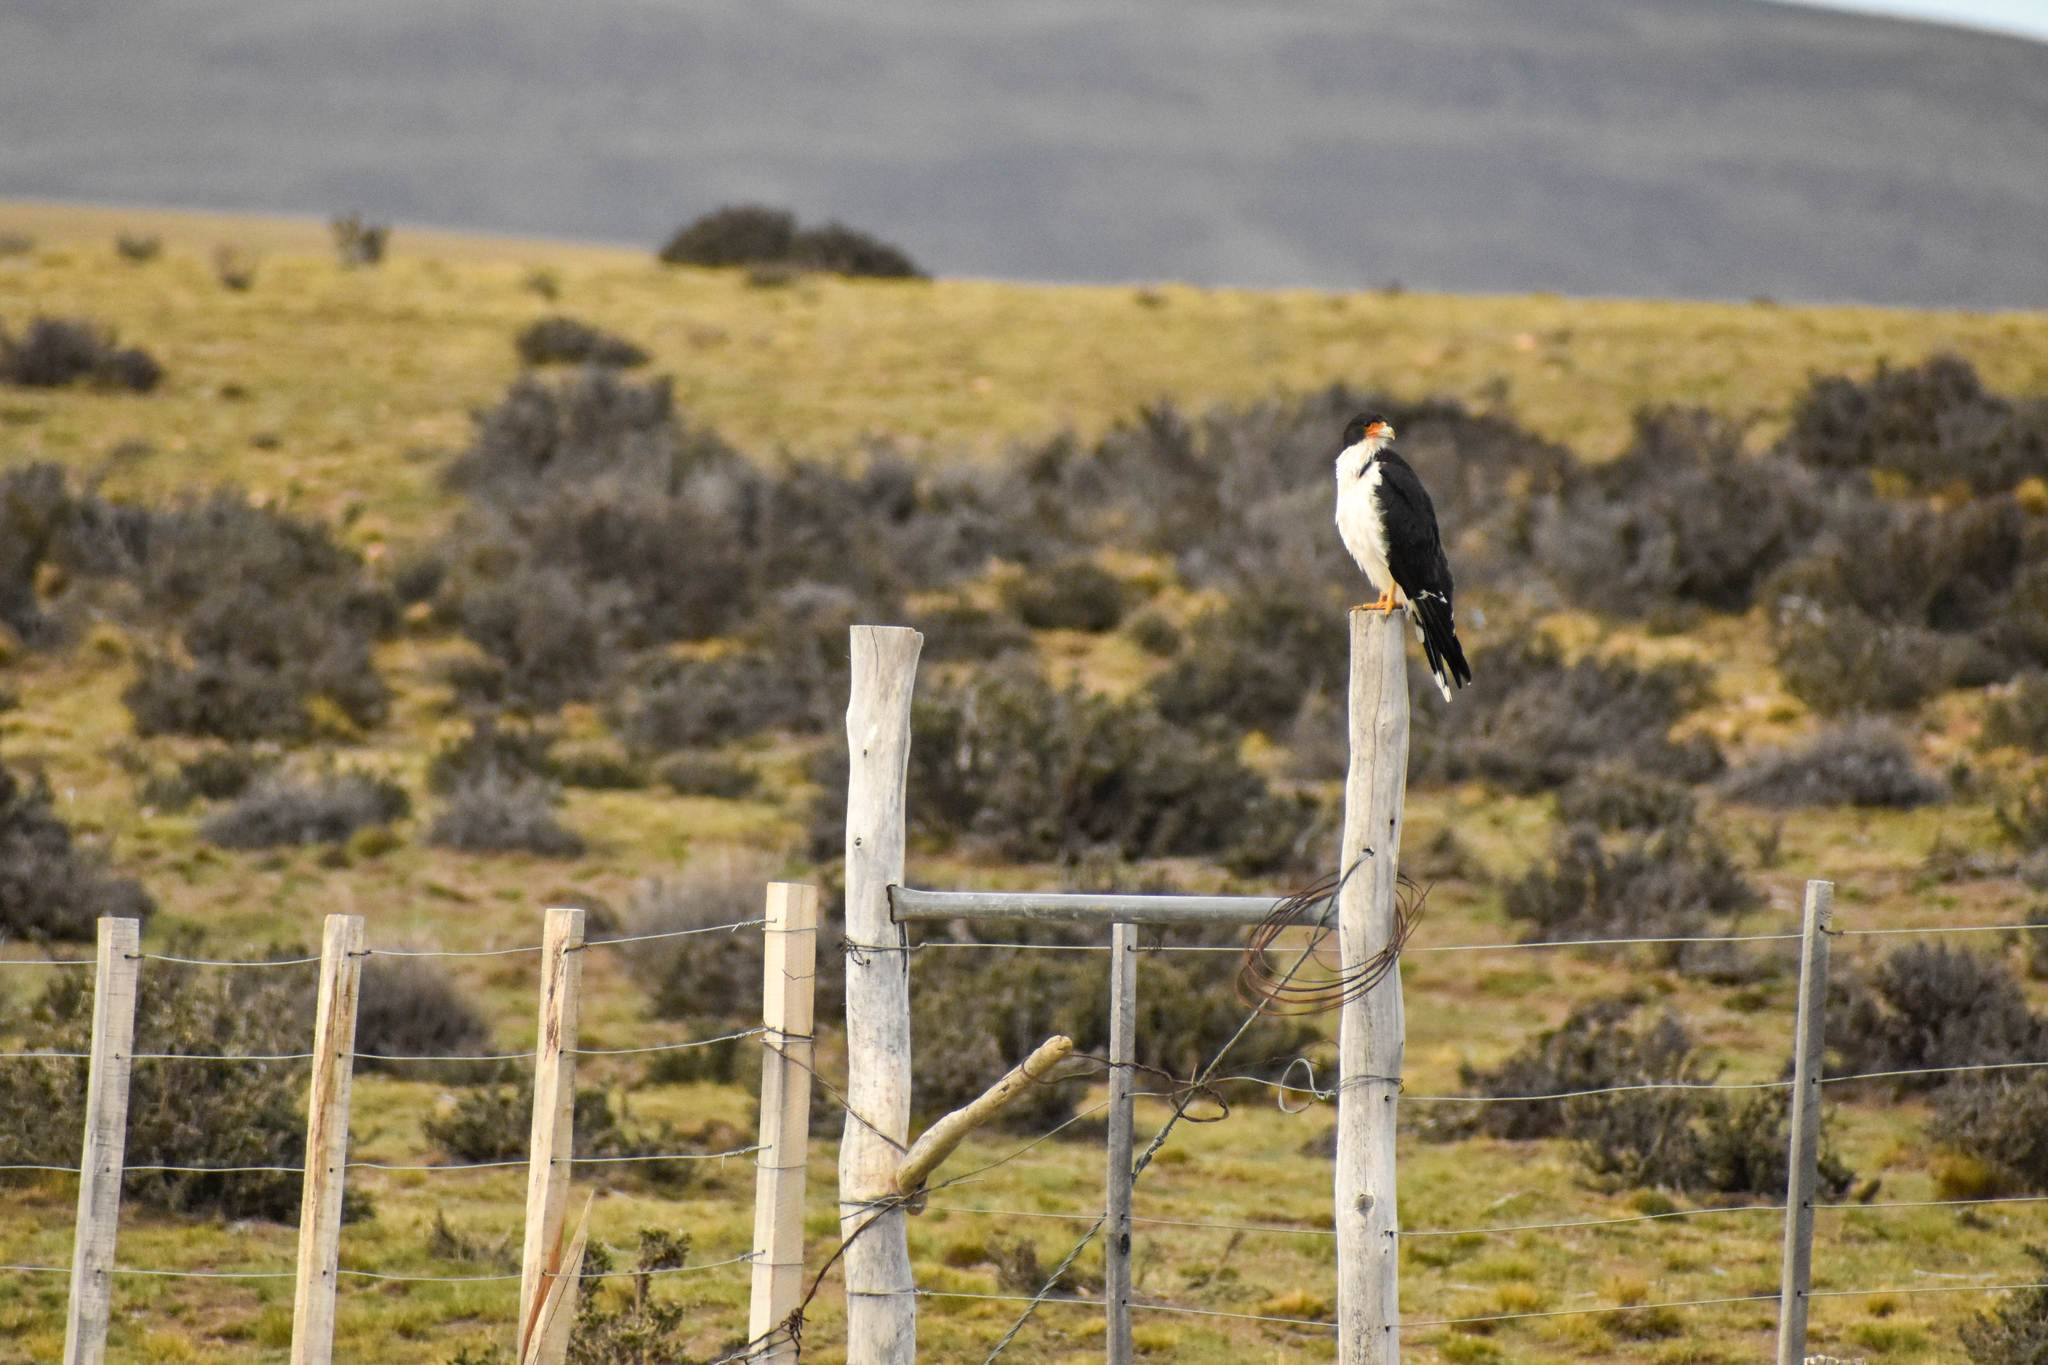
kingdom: Animalia
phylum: Chordata
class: Aves
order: Falconiformes
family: Falconidae
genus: Daptrius
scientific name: Daptrius
